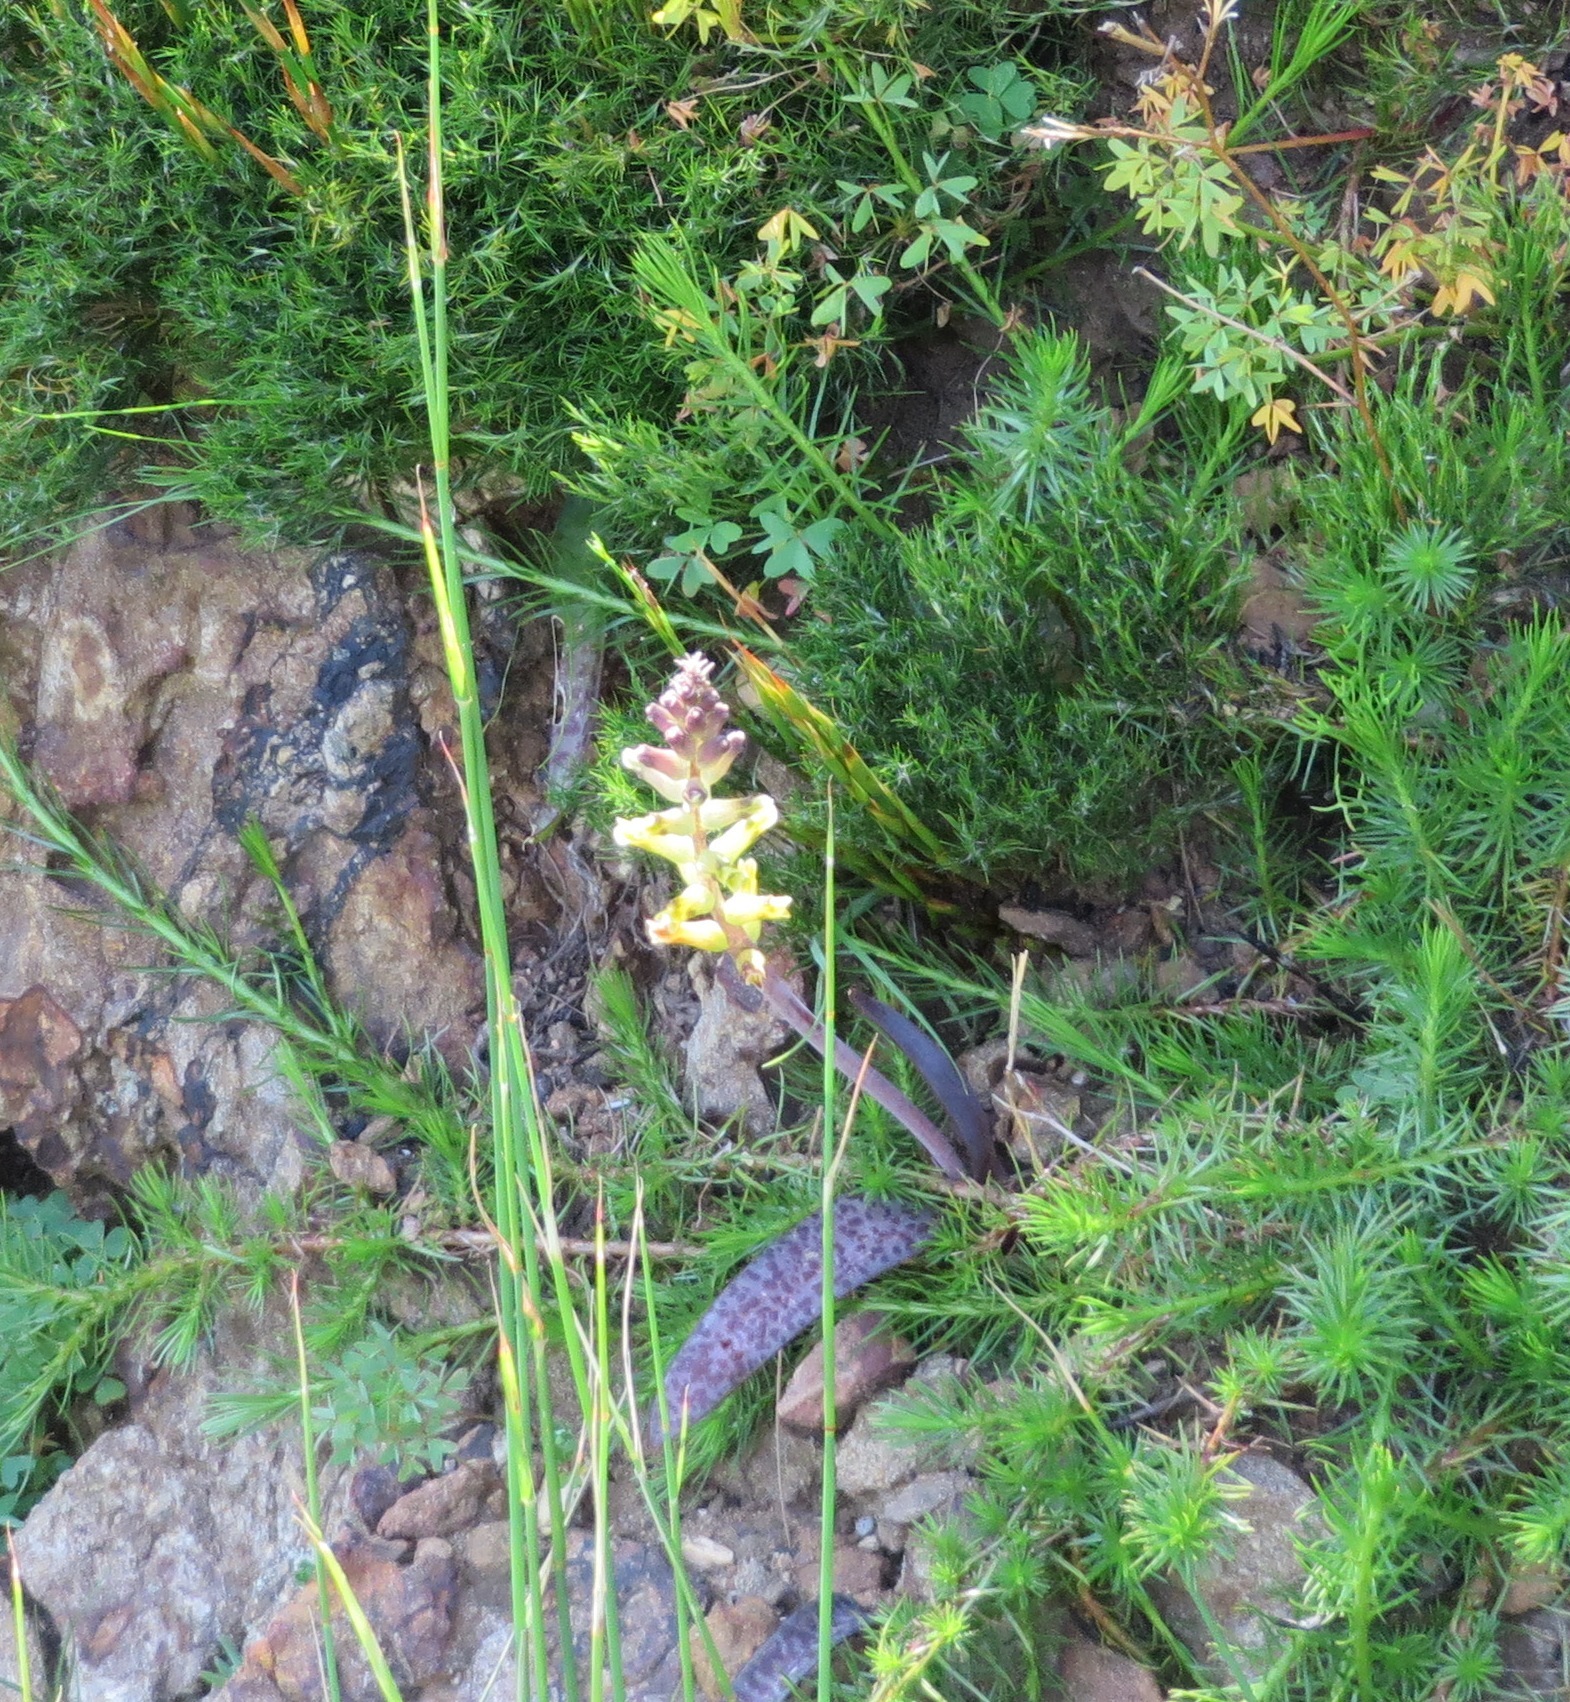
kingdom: Plantae
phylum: Tracheophyta
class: Liliopsida
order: Asparagales
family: Asparagaceae
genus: Lachenalia
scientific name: Lachenalia orchioides
